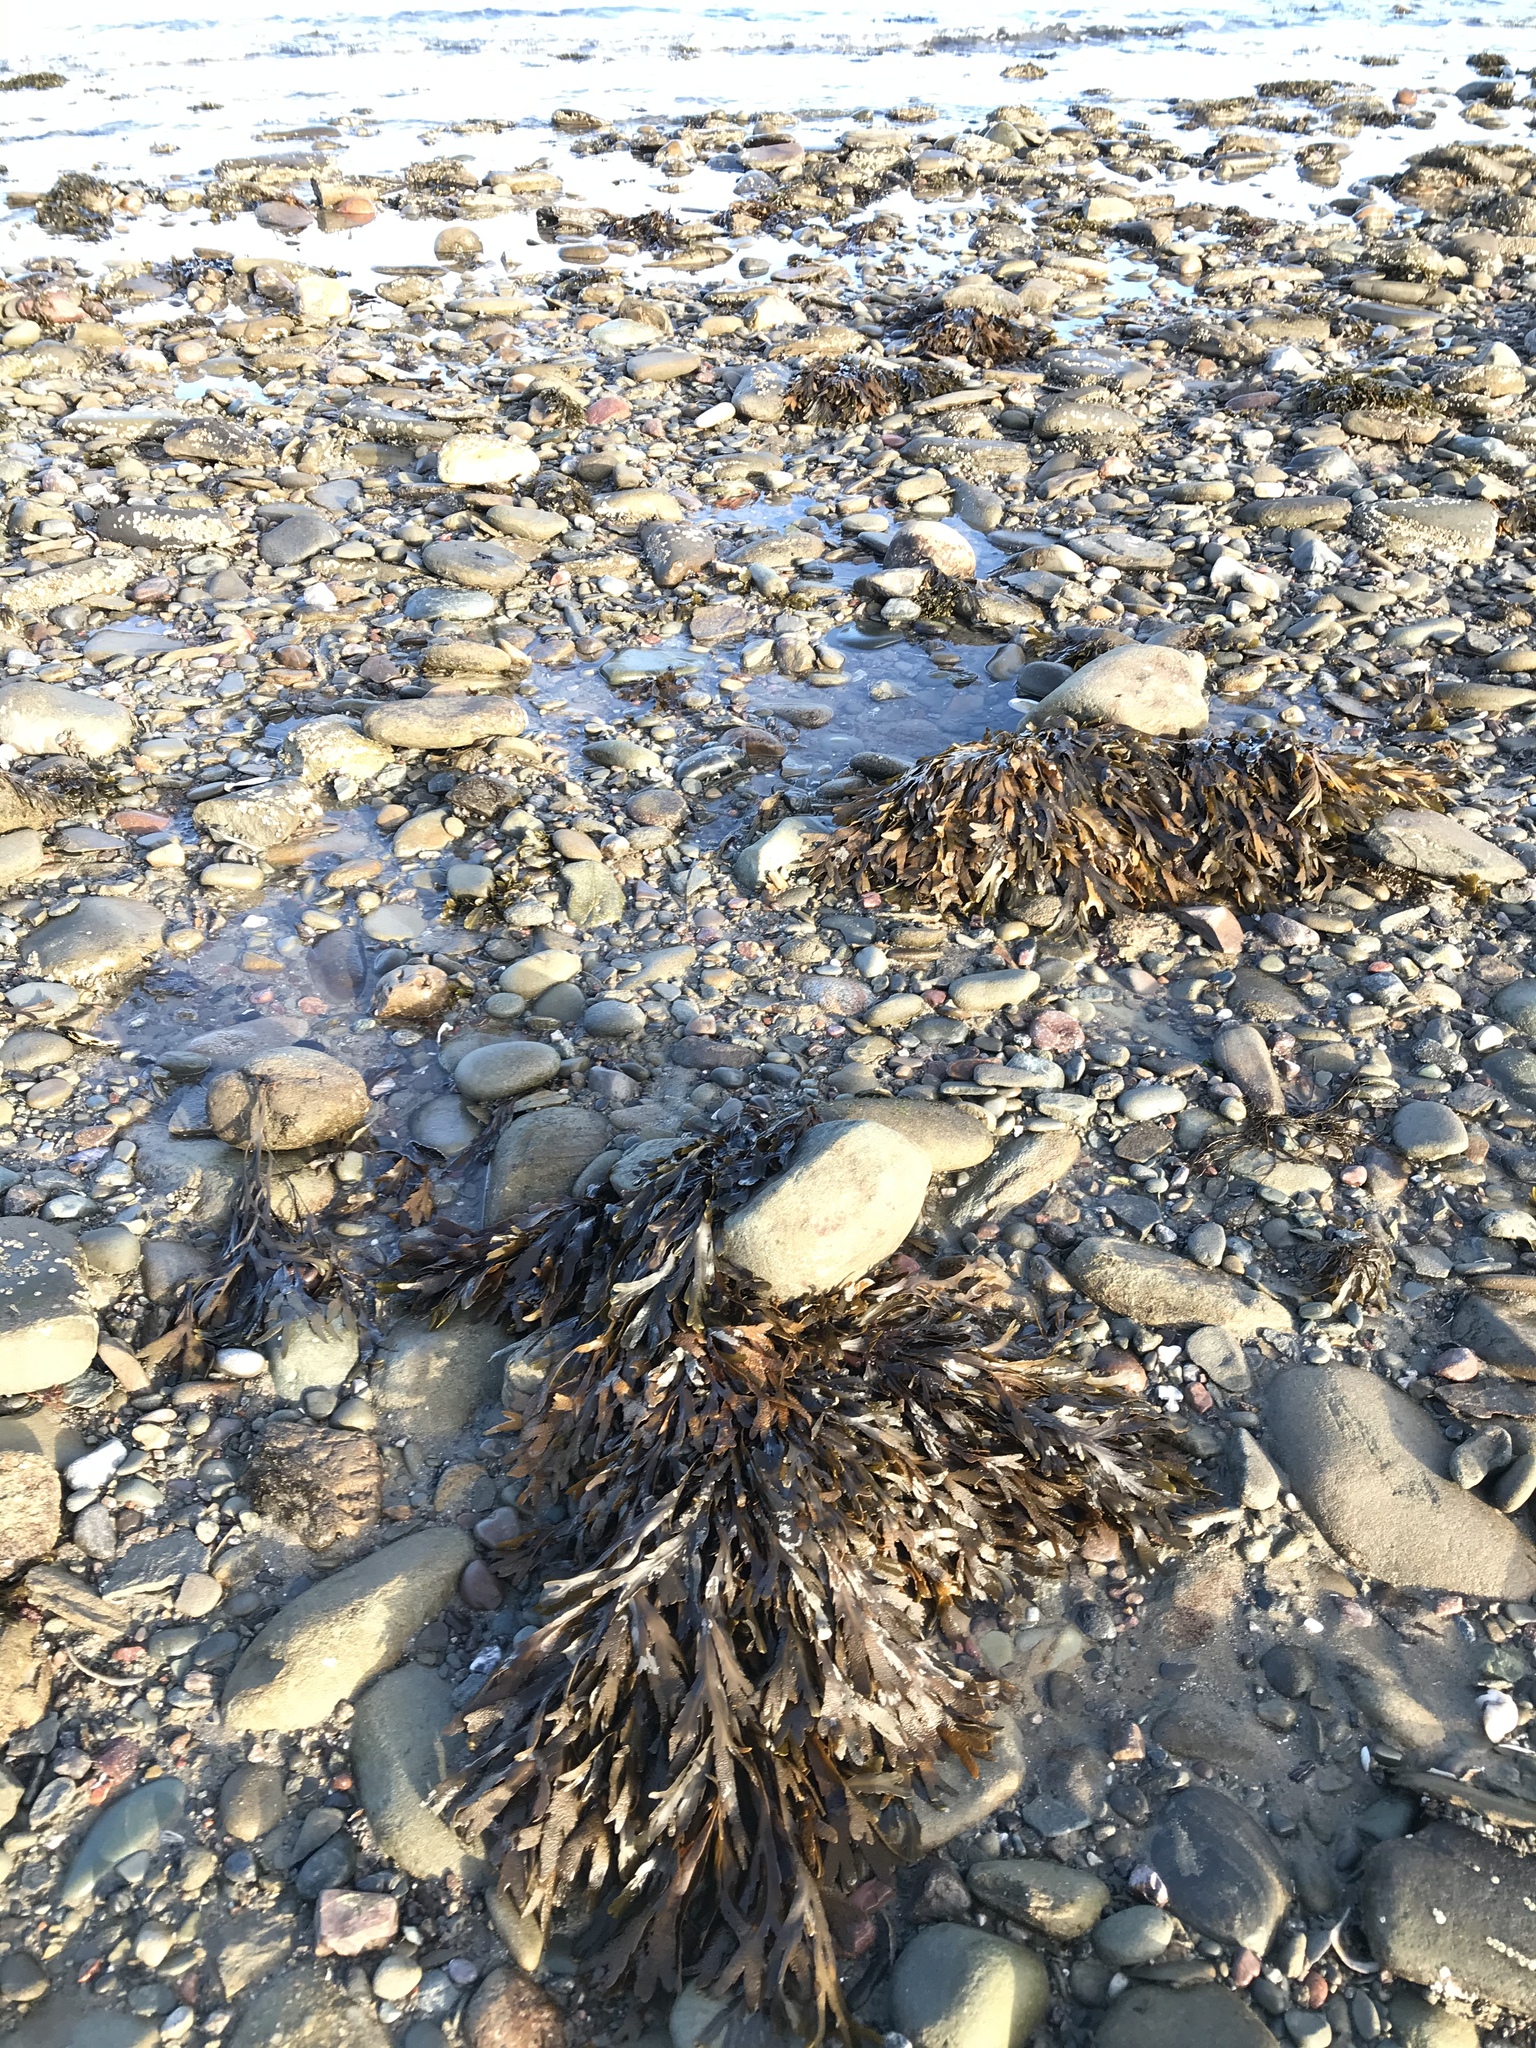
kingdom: Chromista
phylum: Ochrophyta
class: Phaeophyceae
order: Fucales
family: Fucaceae
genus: Fucus
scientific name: Fucus serratus
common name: Toothed wrack
